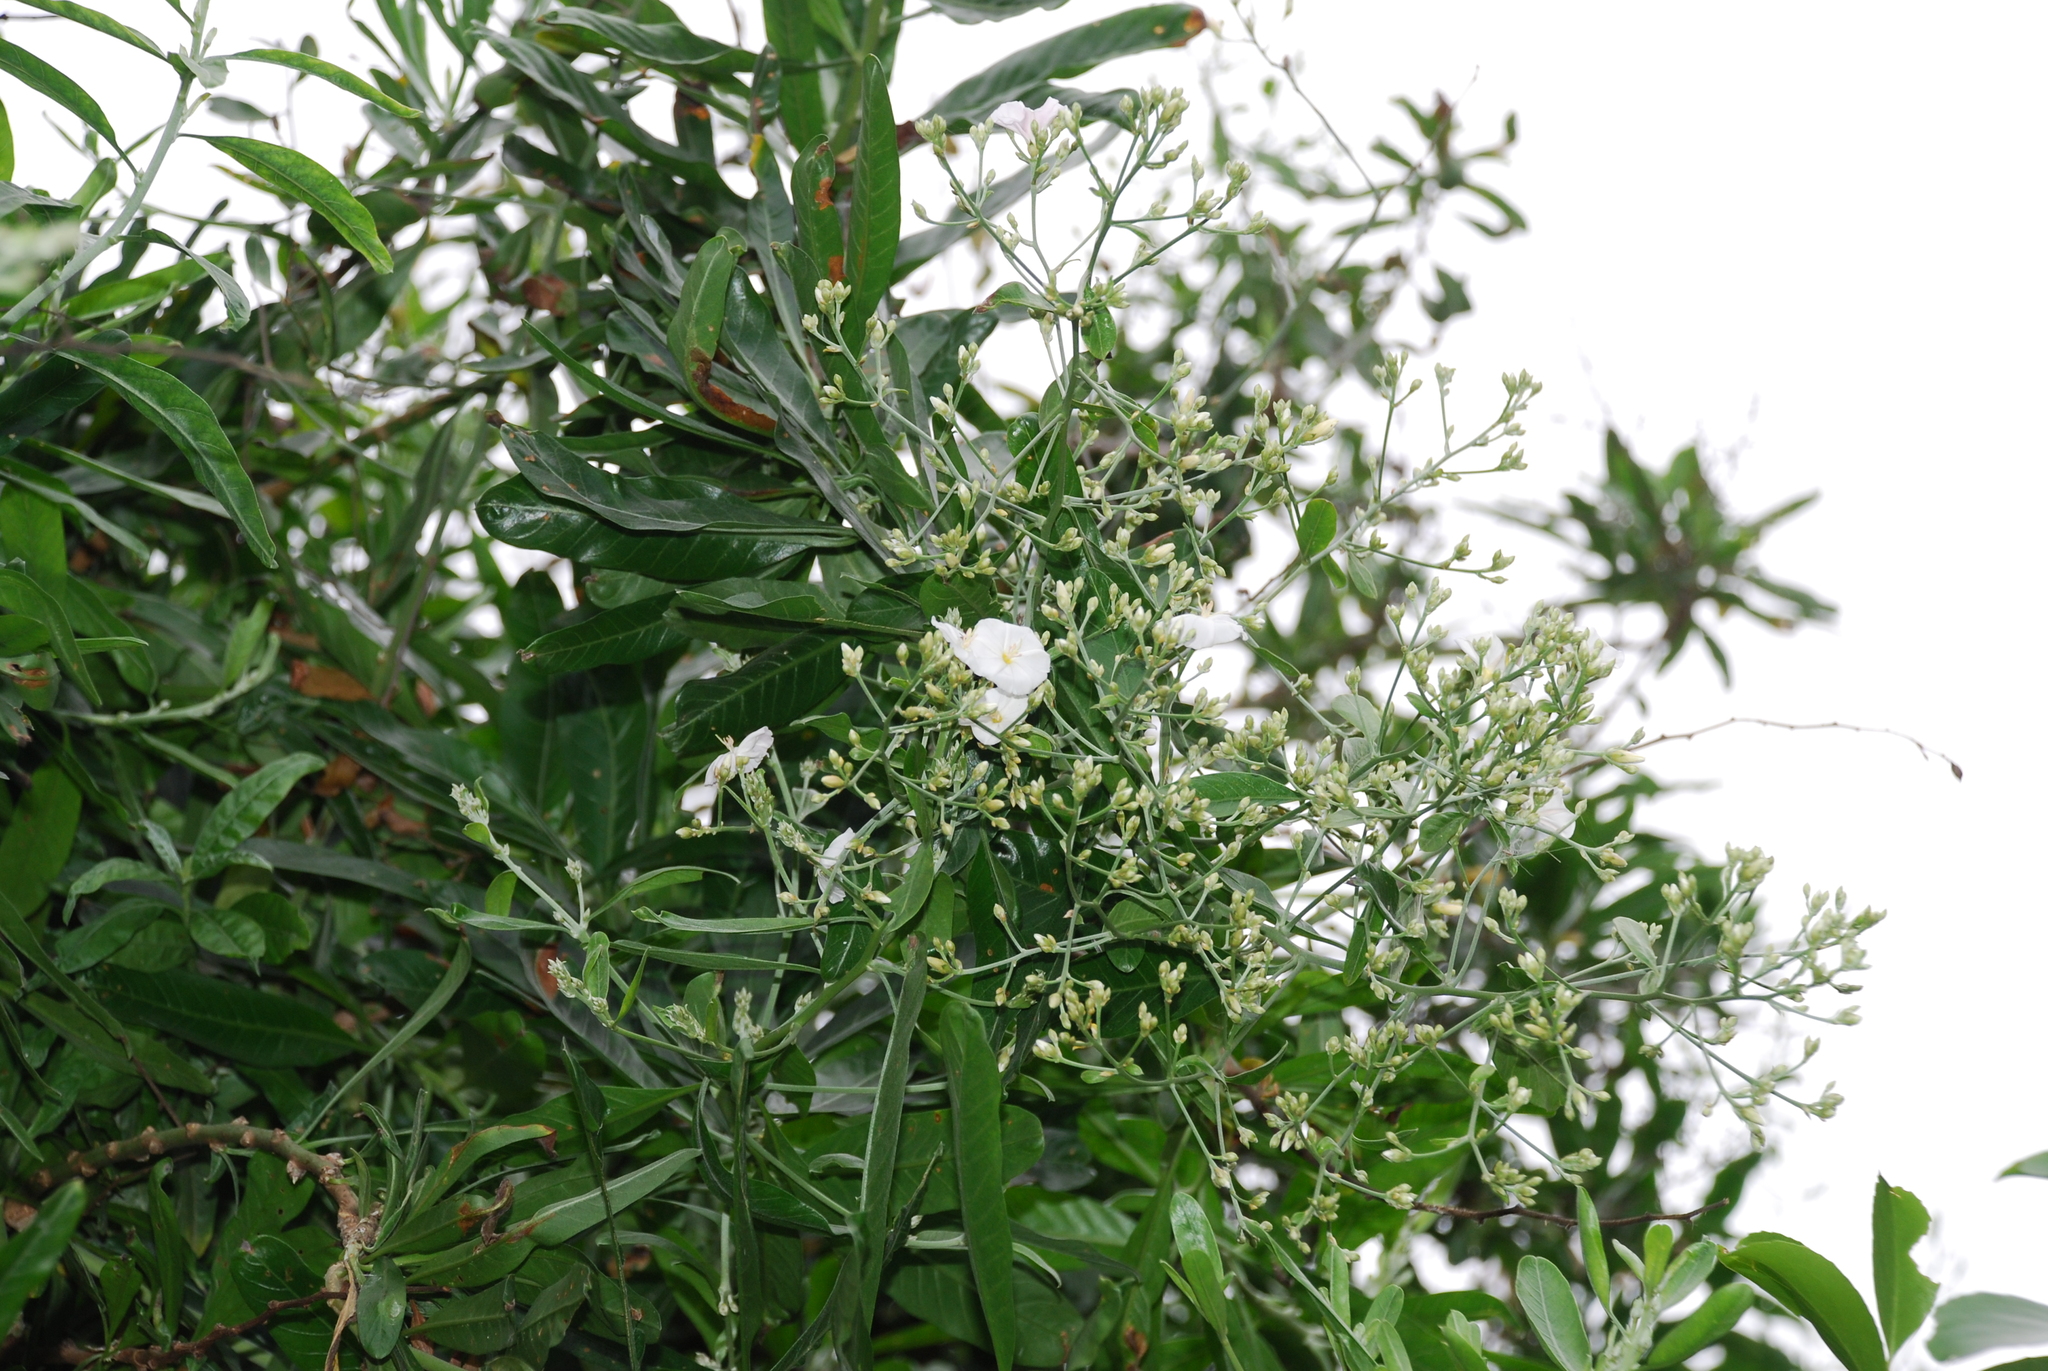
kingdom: Plantae
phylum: Tracheophyta
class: Magnoliopsida
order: Solanales
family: Convolvulaceae
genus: Convolvulus
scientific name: Convolvulus floridus
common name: Guadil
